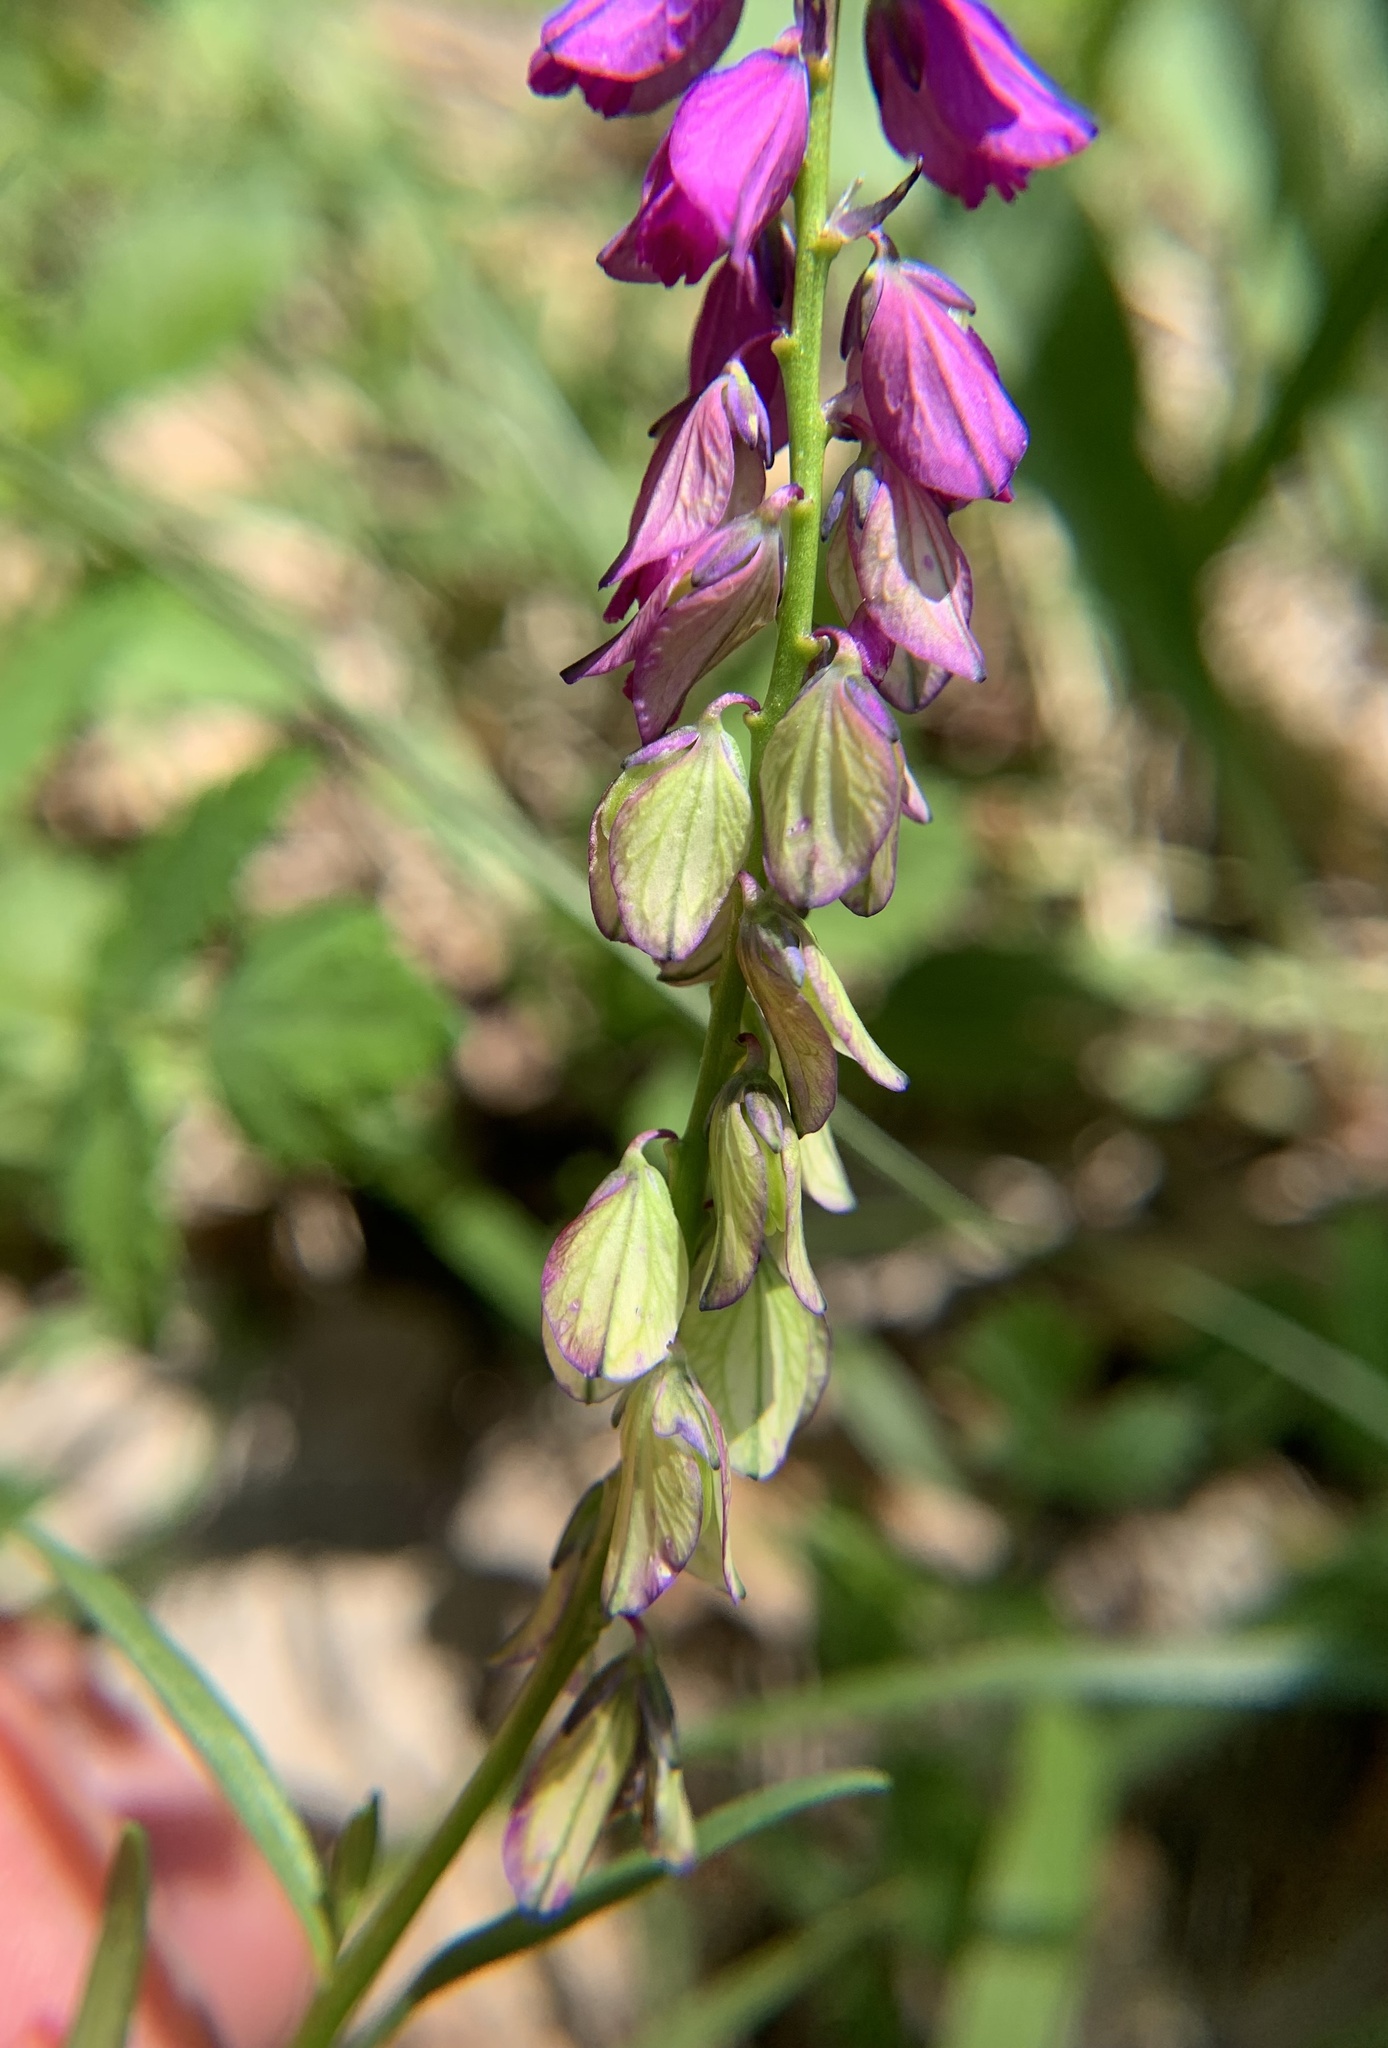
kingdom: Plantae
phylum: Tracheophyta
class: Magnoliopsida
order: Fabales
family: Polygalaceae
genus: Polygala
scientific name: Polygala comosa
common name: Tufted milkwort
